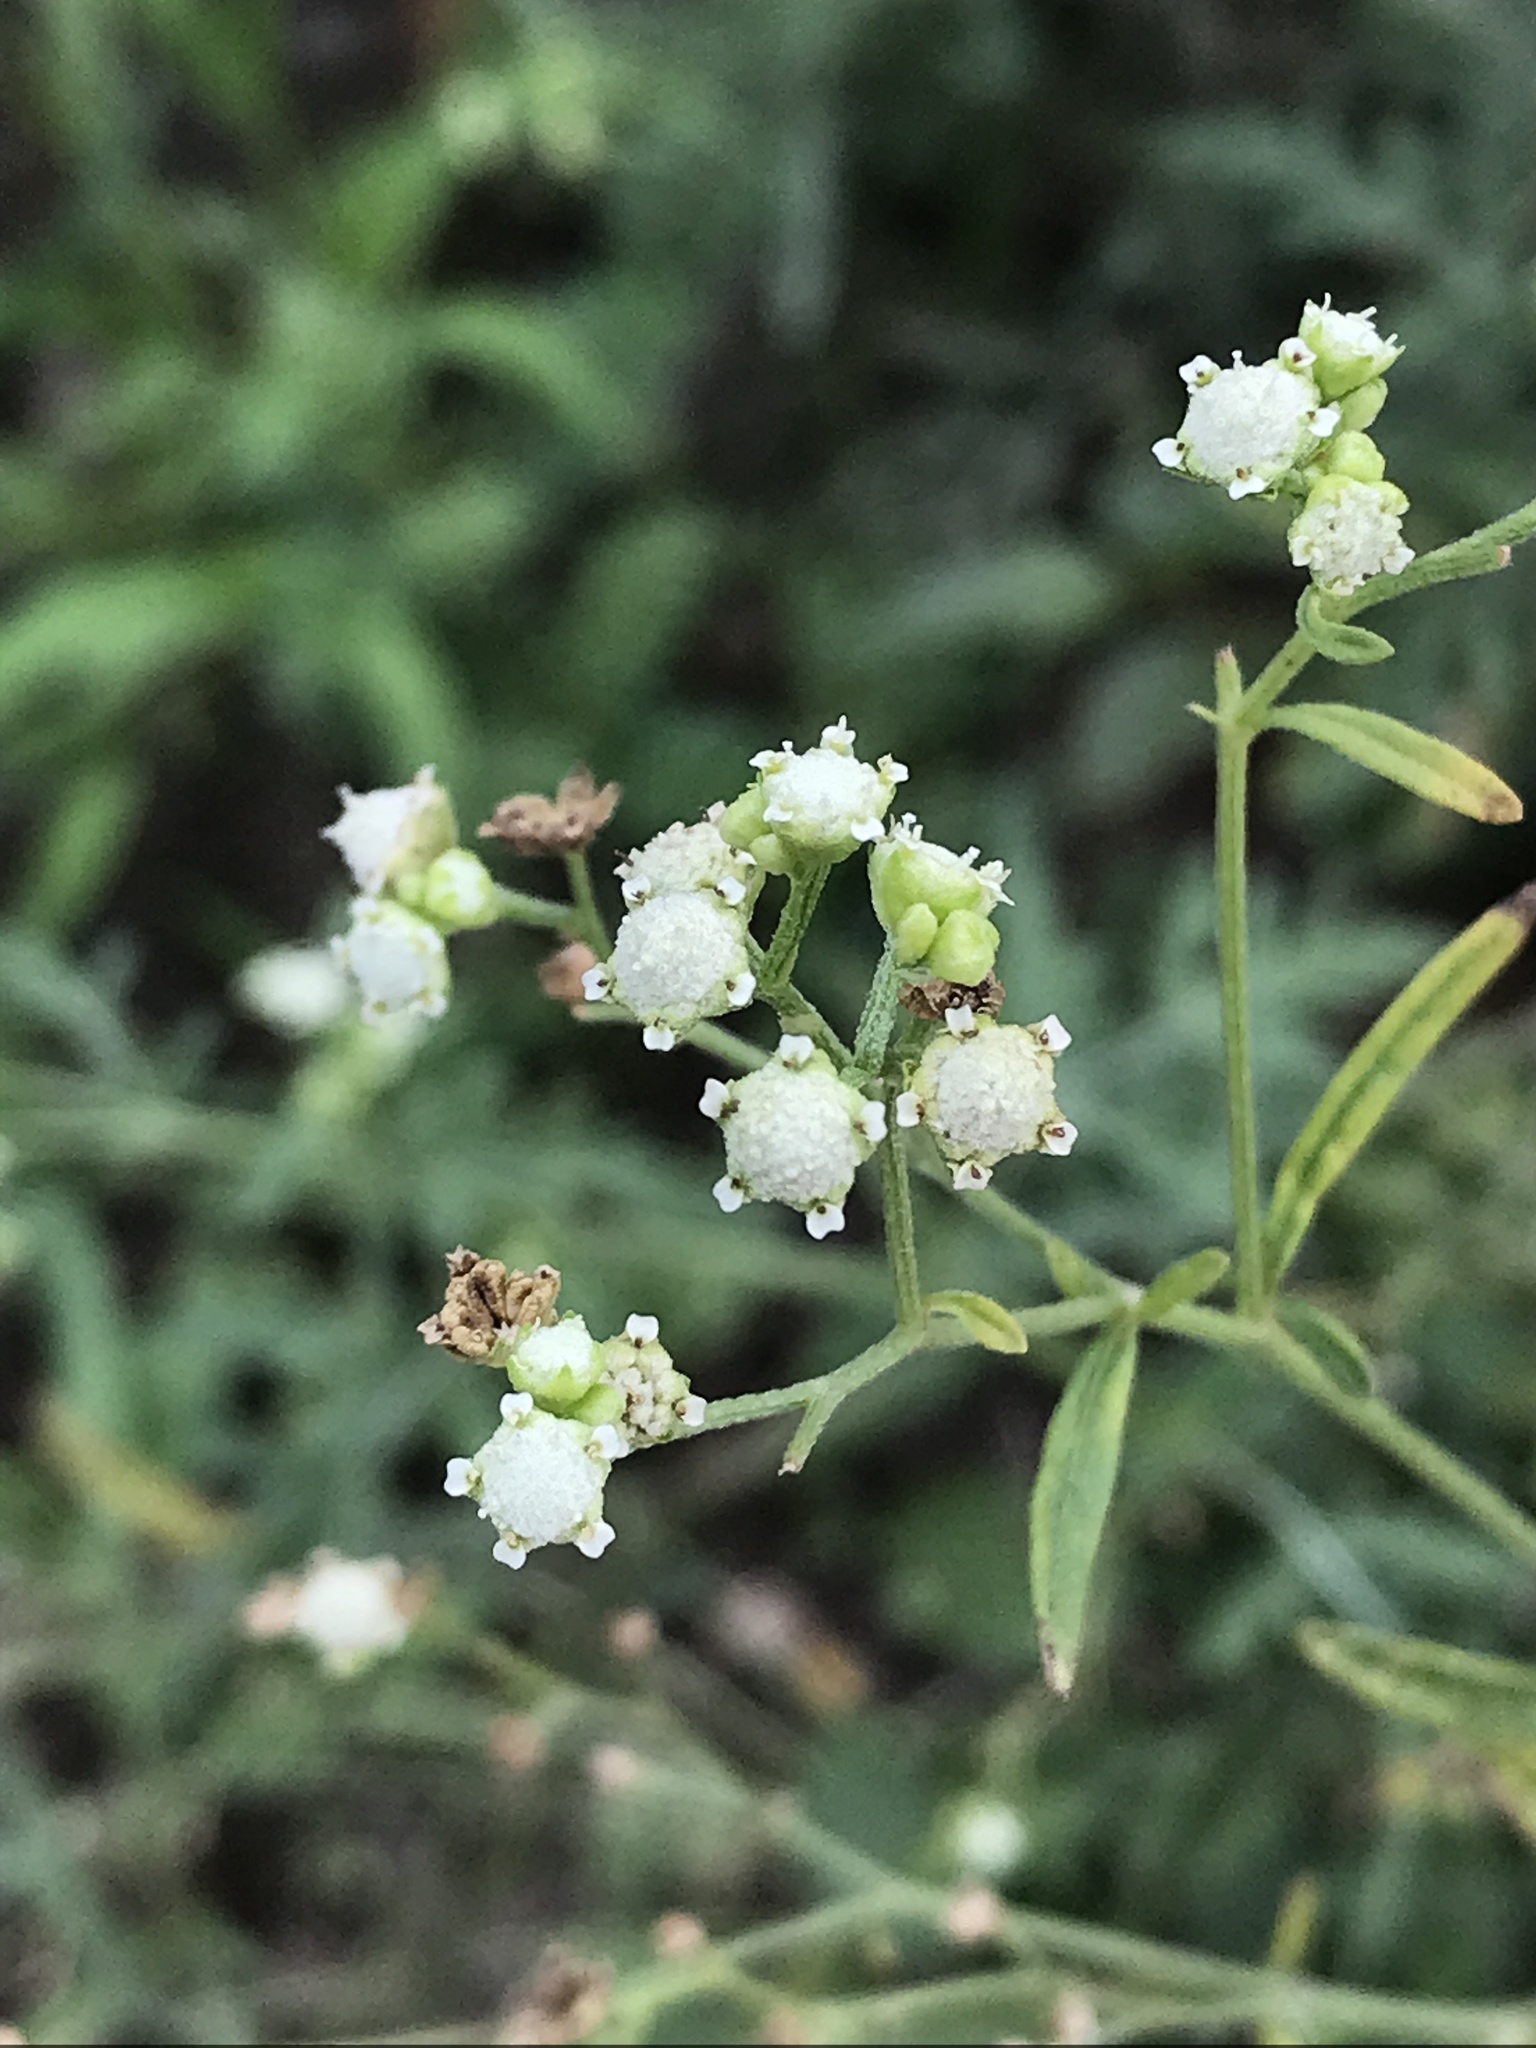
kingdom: Plantae
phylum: Tracheophyta
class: Magnoliopsida
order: Asterales
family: Asteraceae
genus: Parthenium
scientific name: Parthenium hysterophorus
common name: Santa maria feverfew
